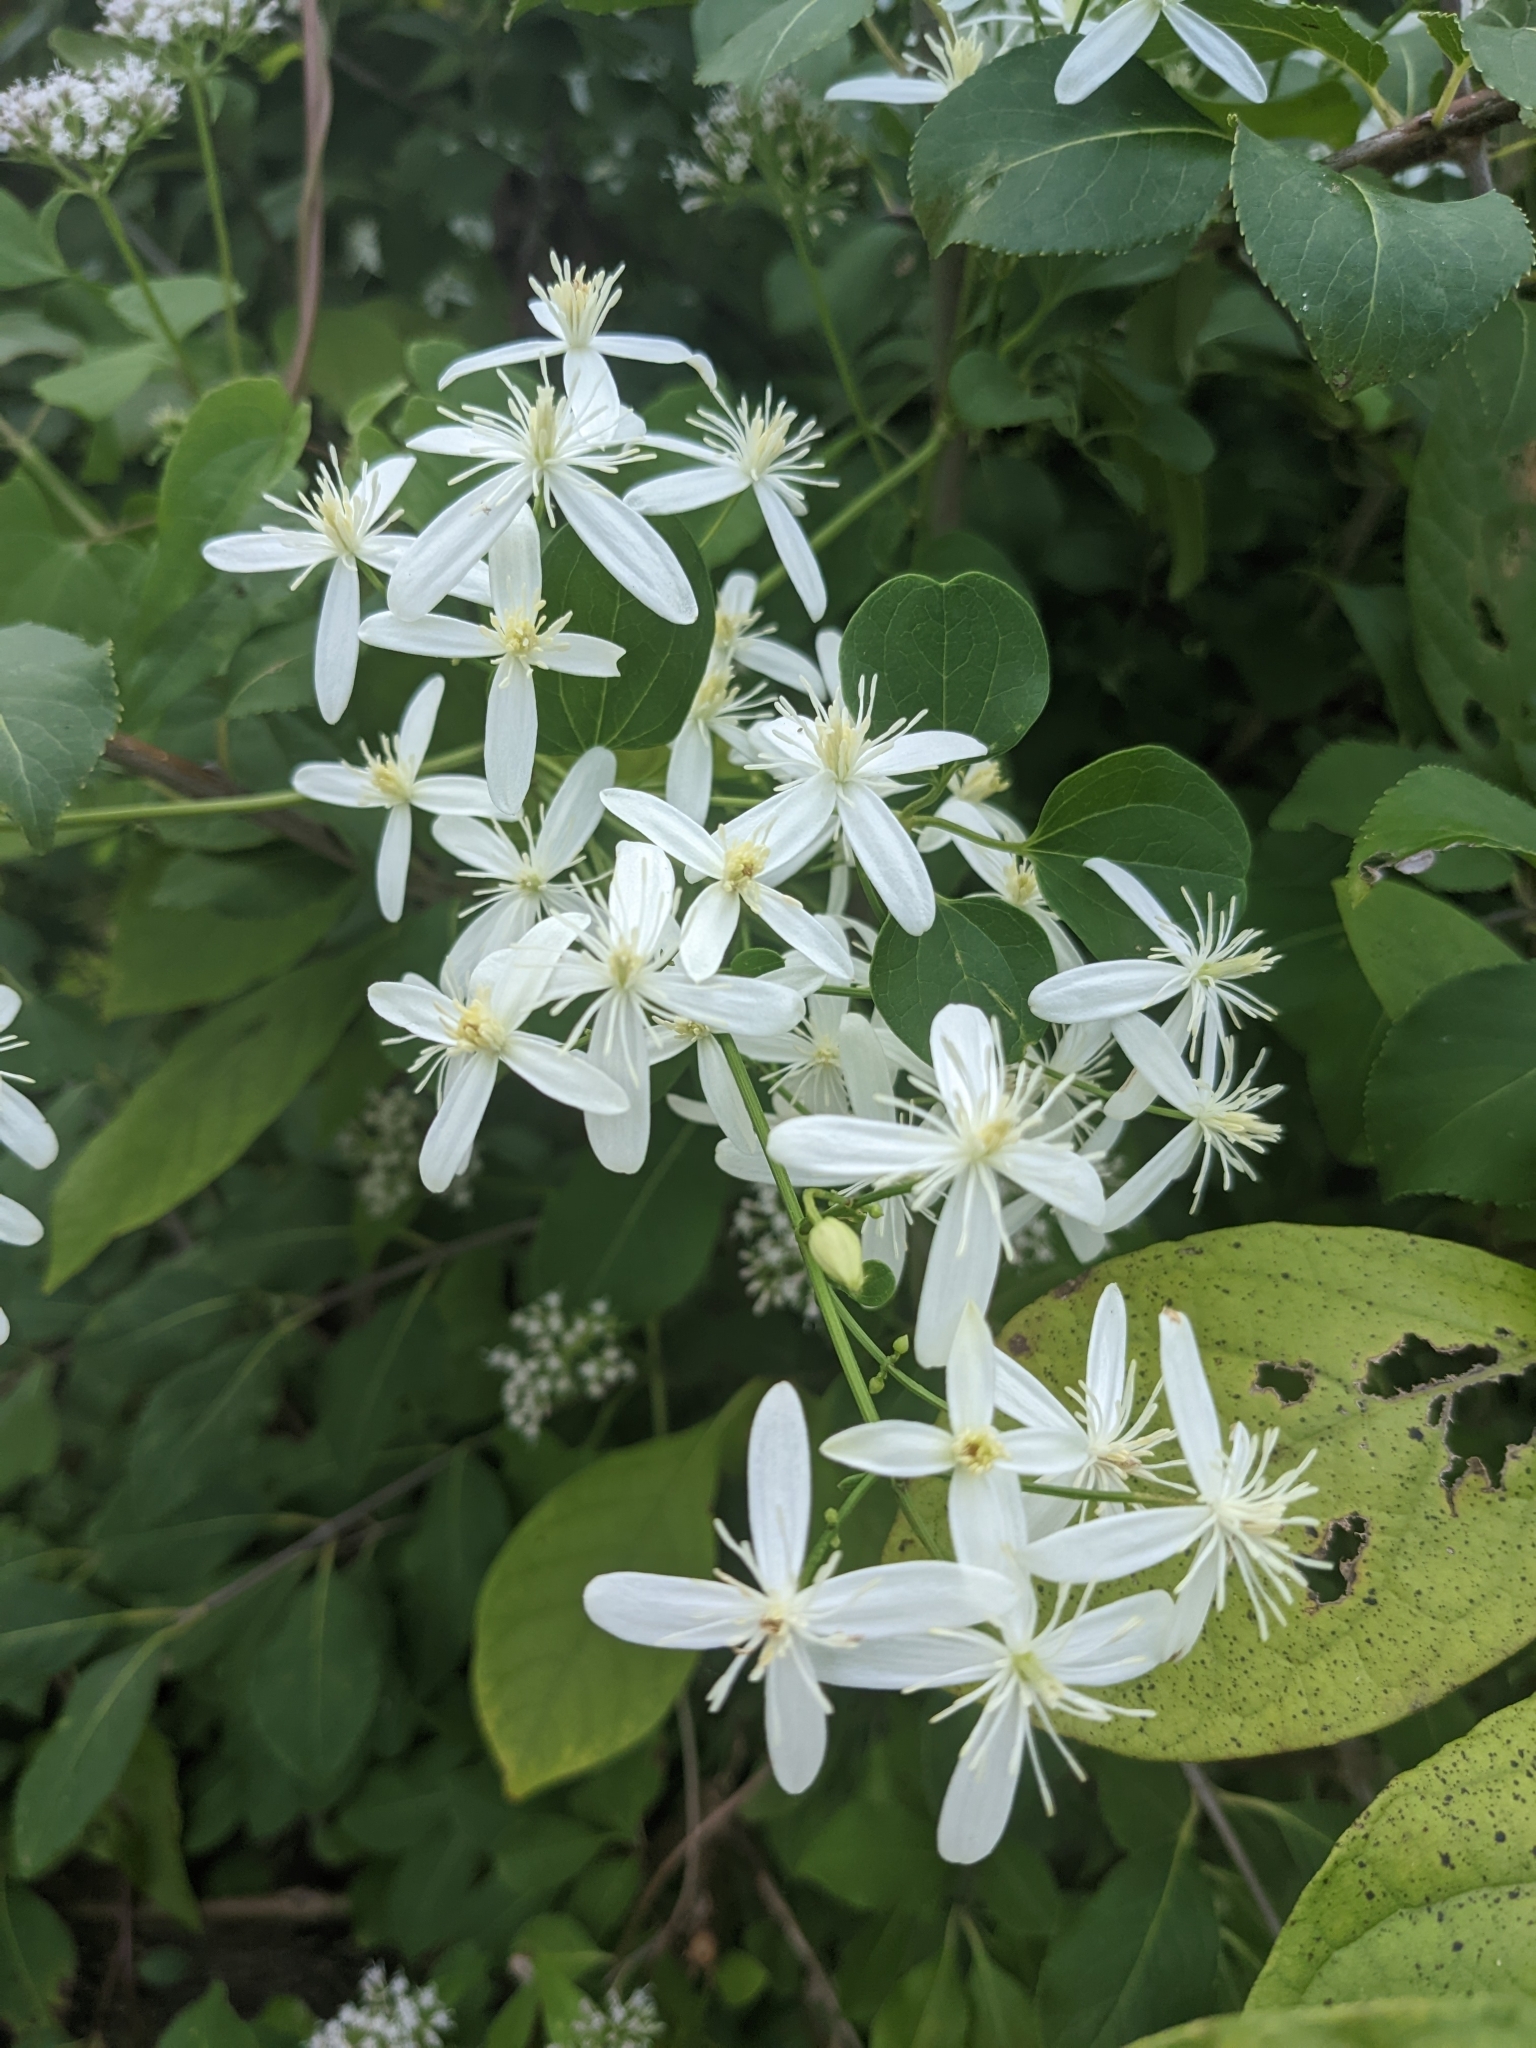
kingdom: Plantae
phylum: Tracheophyta
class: Magnoliopsida
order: Ranunculales
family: Ranunculaceae
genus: Clematis
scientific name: Clematis terniflora
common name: Sweet autumn clematis
